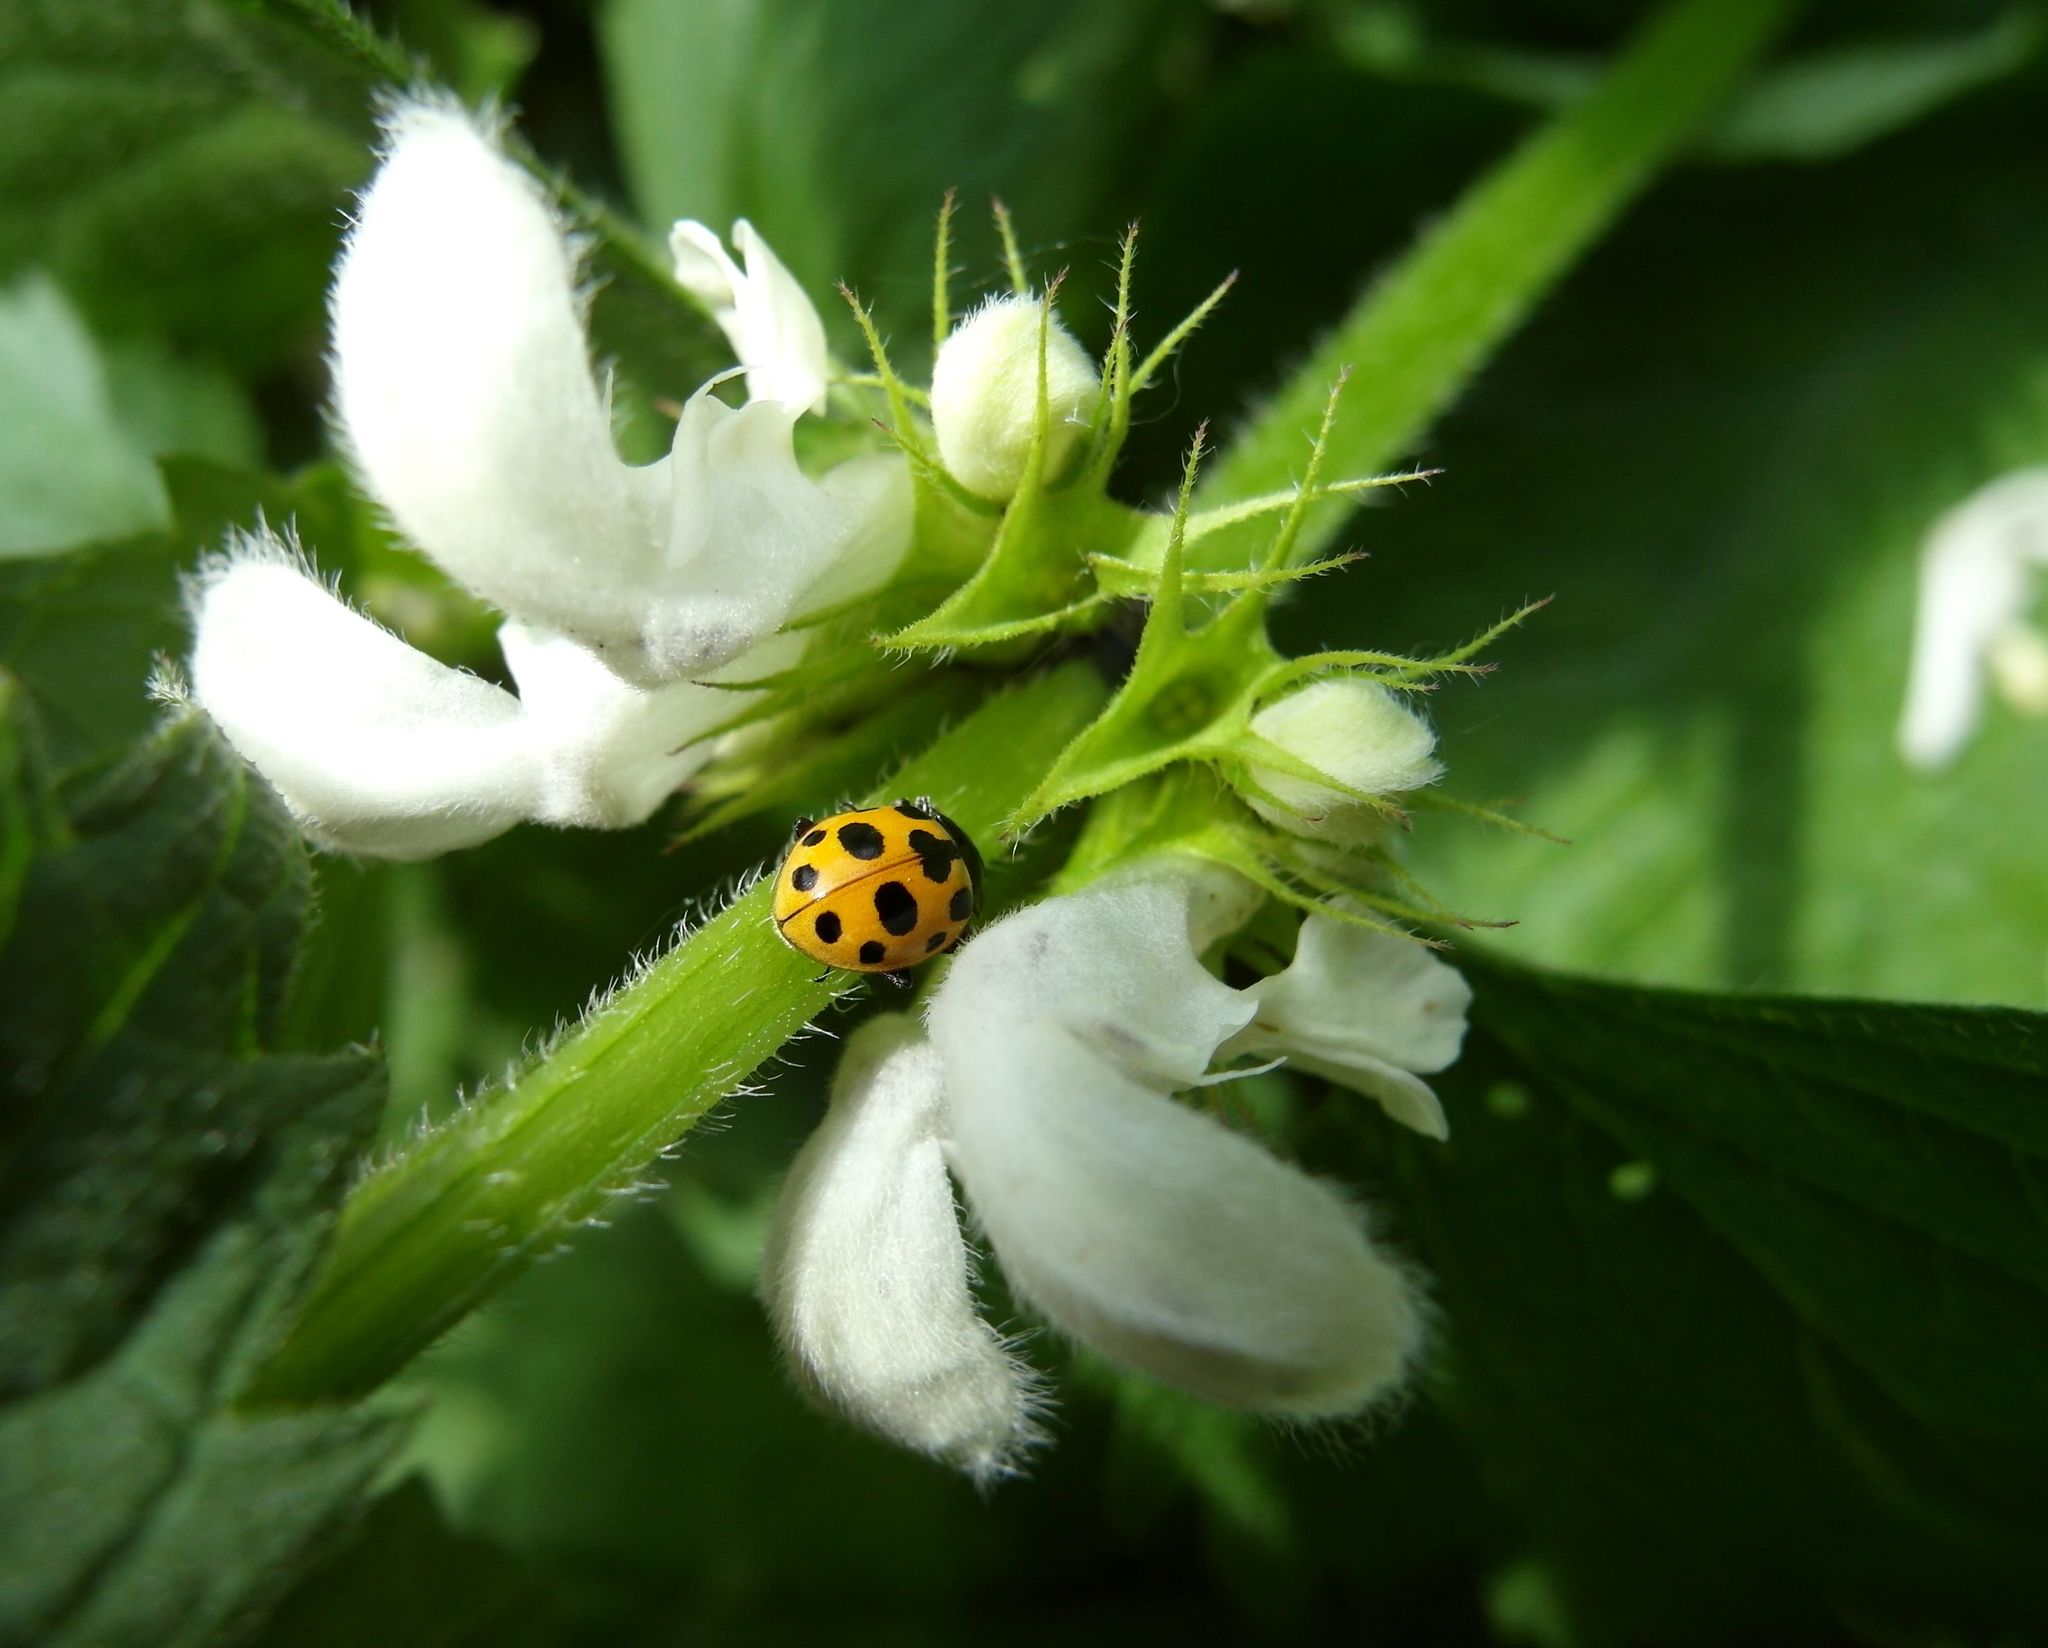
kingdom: Animalia
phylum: Arthropoda
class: Insecta
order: Coleoptera
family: Coccinellidae
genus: Ceratomegilla
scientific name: Ceratomegilla notata
